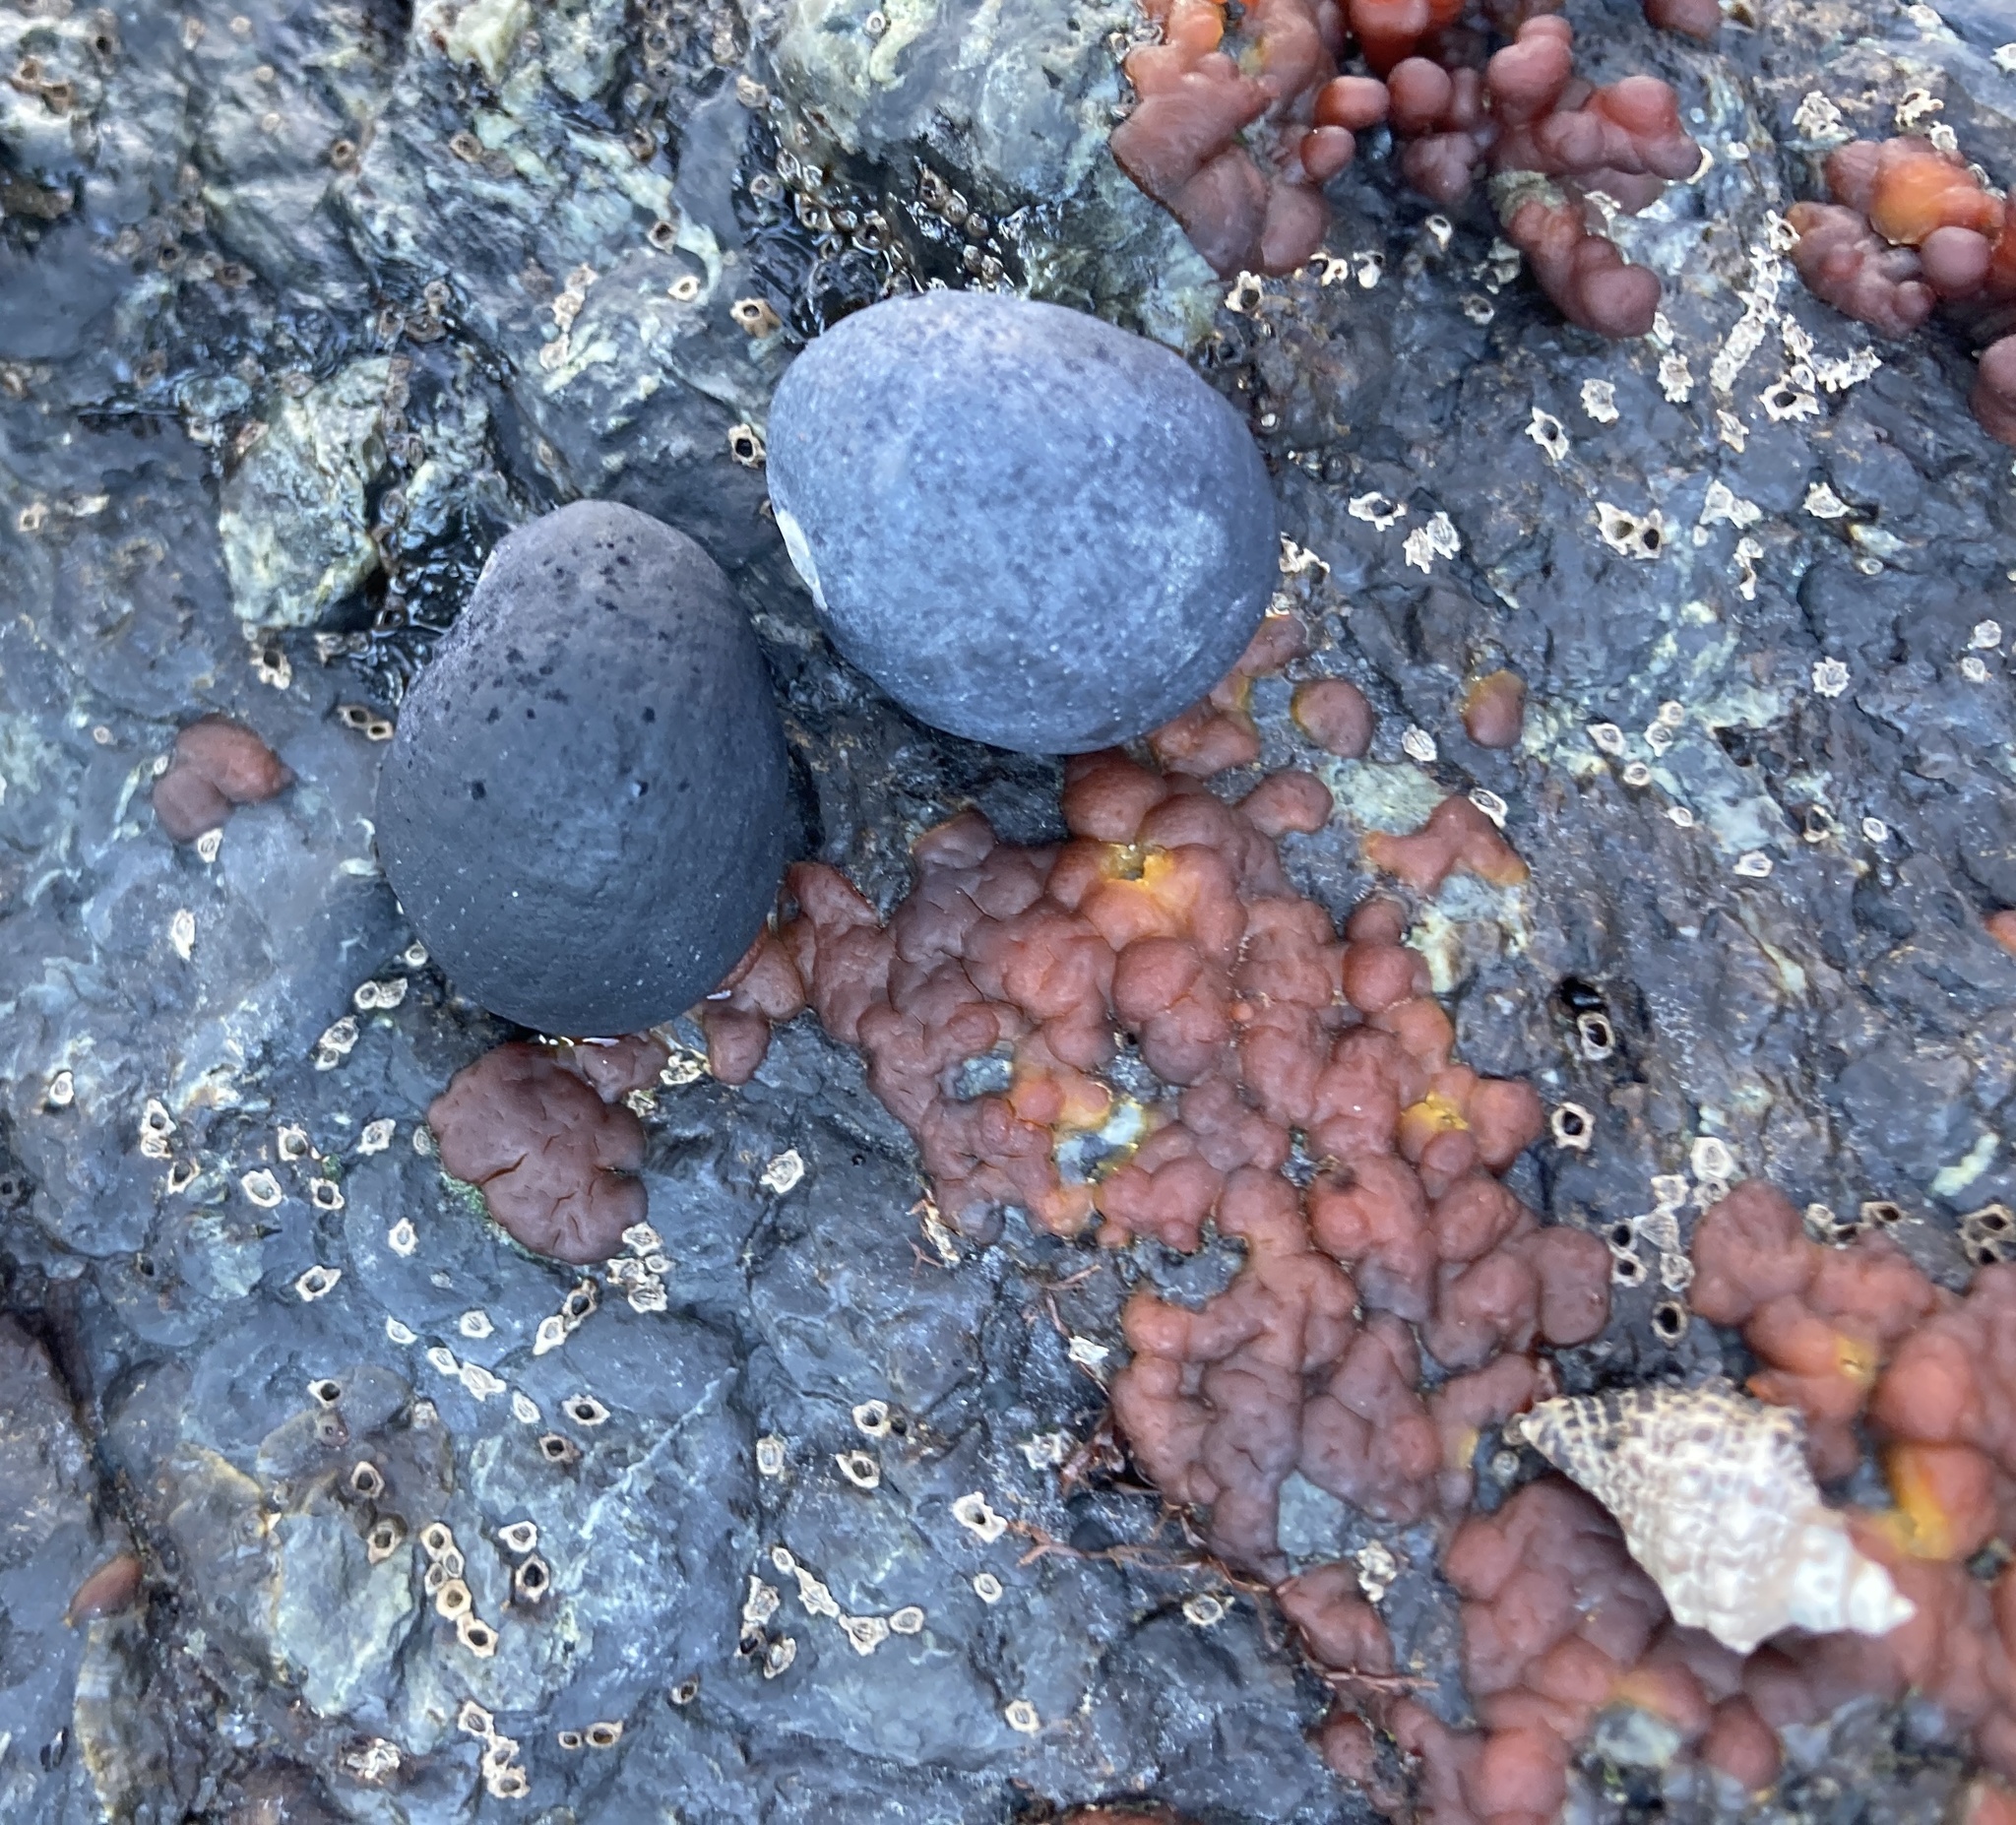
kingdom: Animalia
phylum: Mollusca
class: Gastropoda
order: Cycloneritida
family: Neritidae
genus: Nerita
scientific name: Nerita melanotragus
